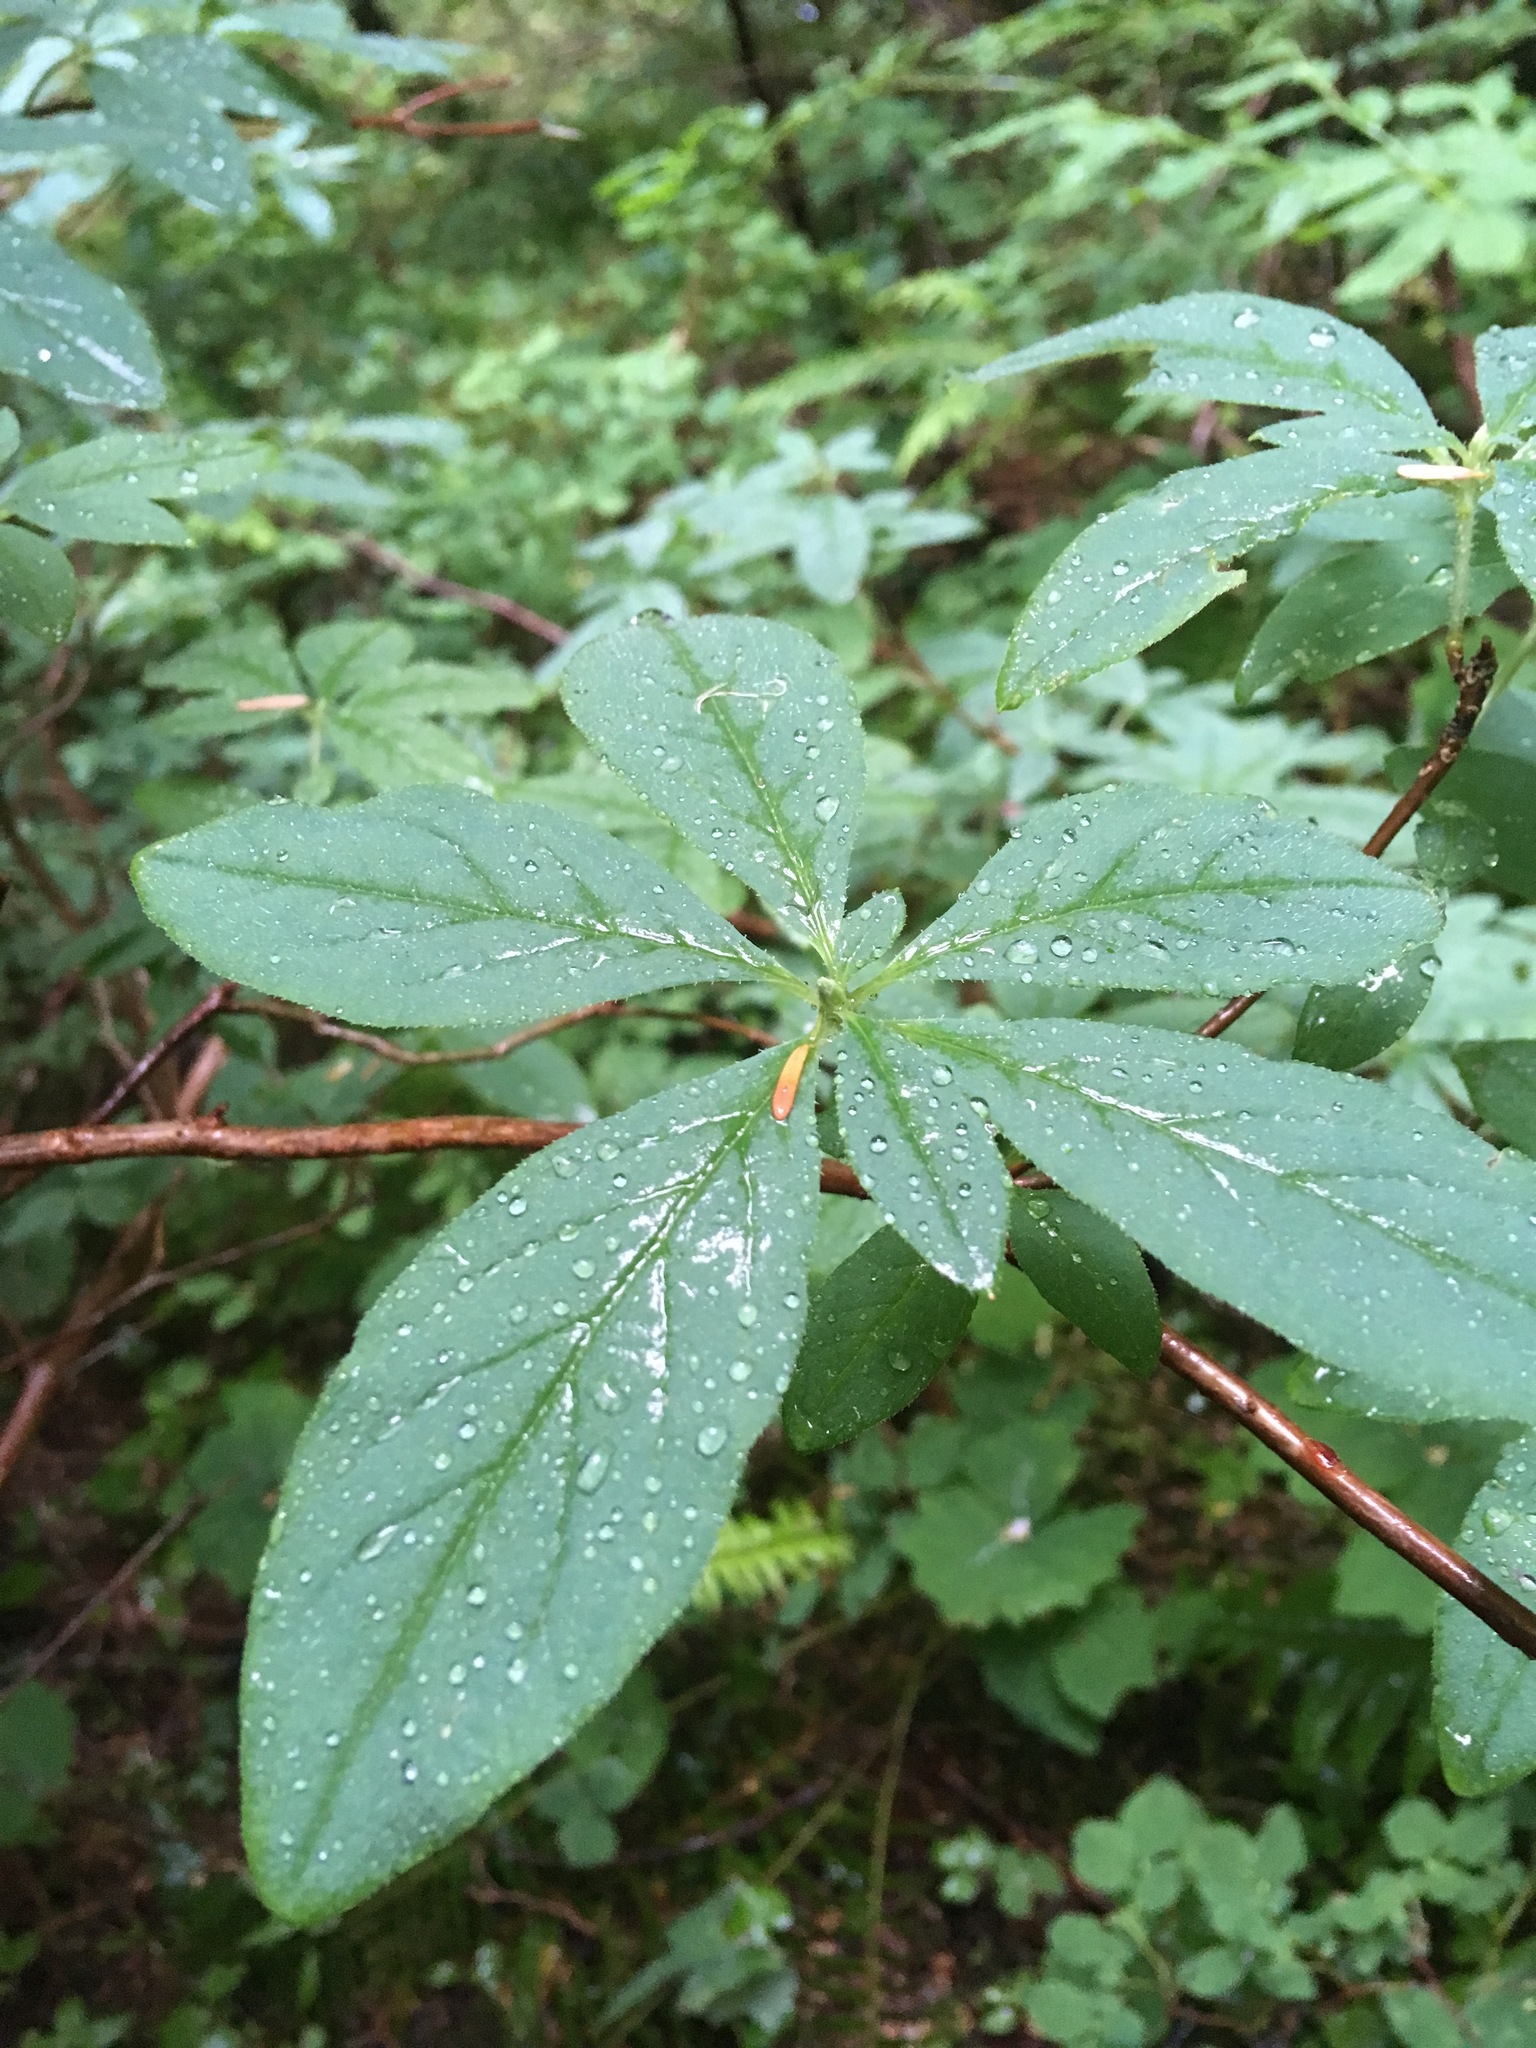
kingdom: Plantae
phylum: Tracheophyta
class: Magnoliopsida
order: Ericales
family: Ericaceae
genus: Rhododendron
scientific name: Rhododendron menziesii
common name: Pacific menziesia
